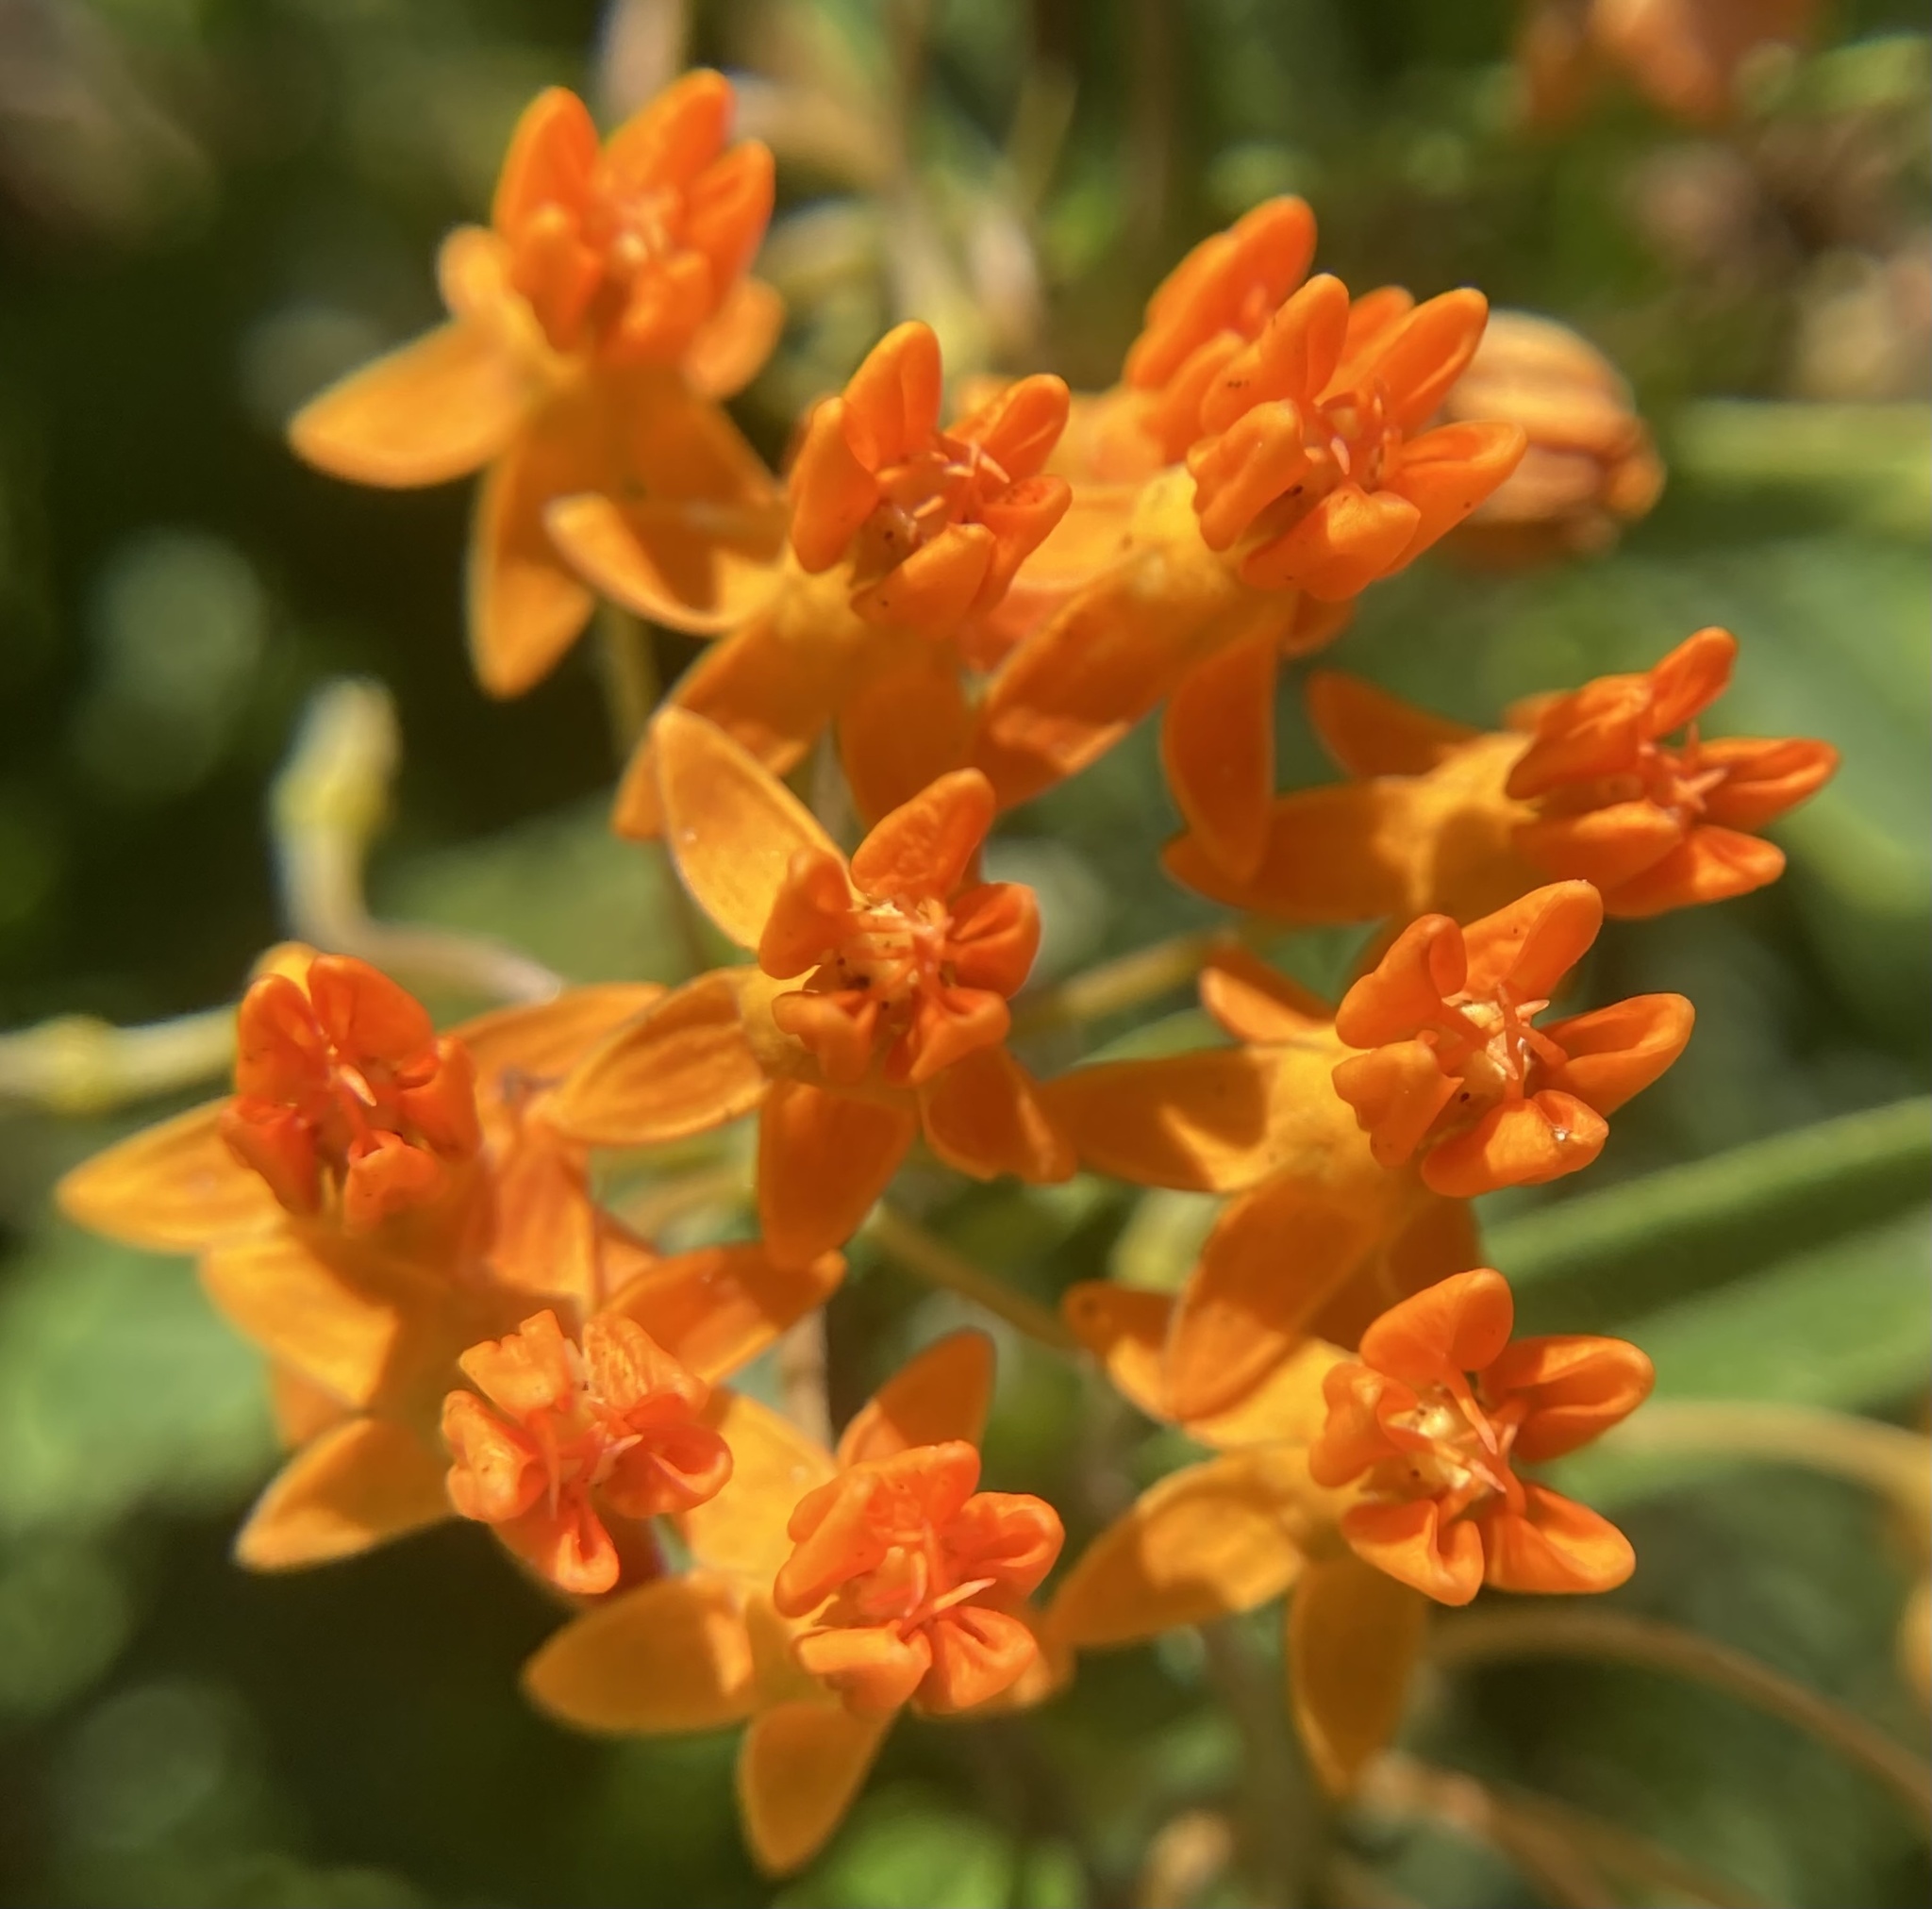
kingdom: Plantae
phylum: Tracheophyta
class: Magnoliopsida
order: Gentianales
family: Apocynaceae
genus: Asclepias
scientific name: Asclepias tuberosa
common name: Butterfly milkweed
